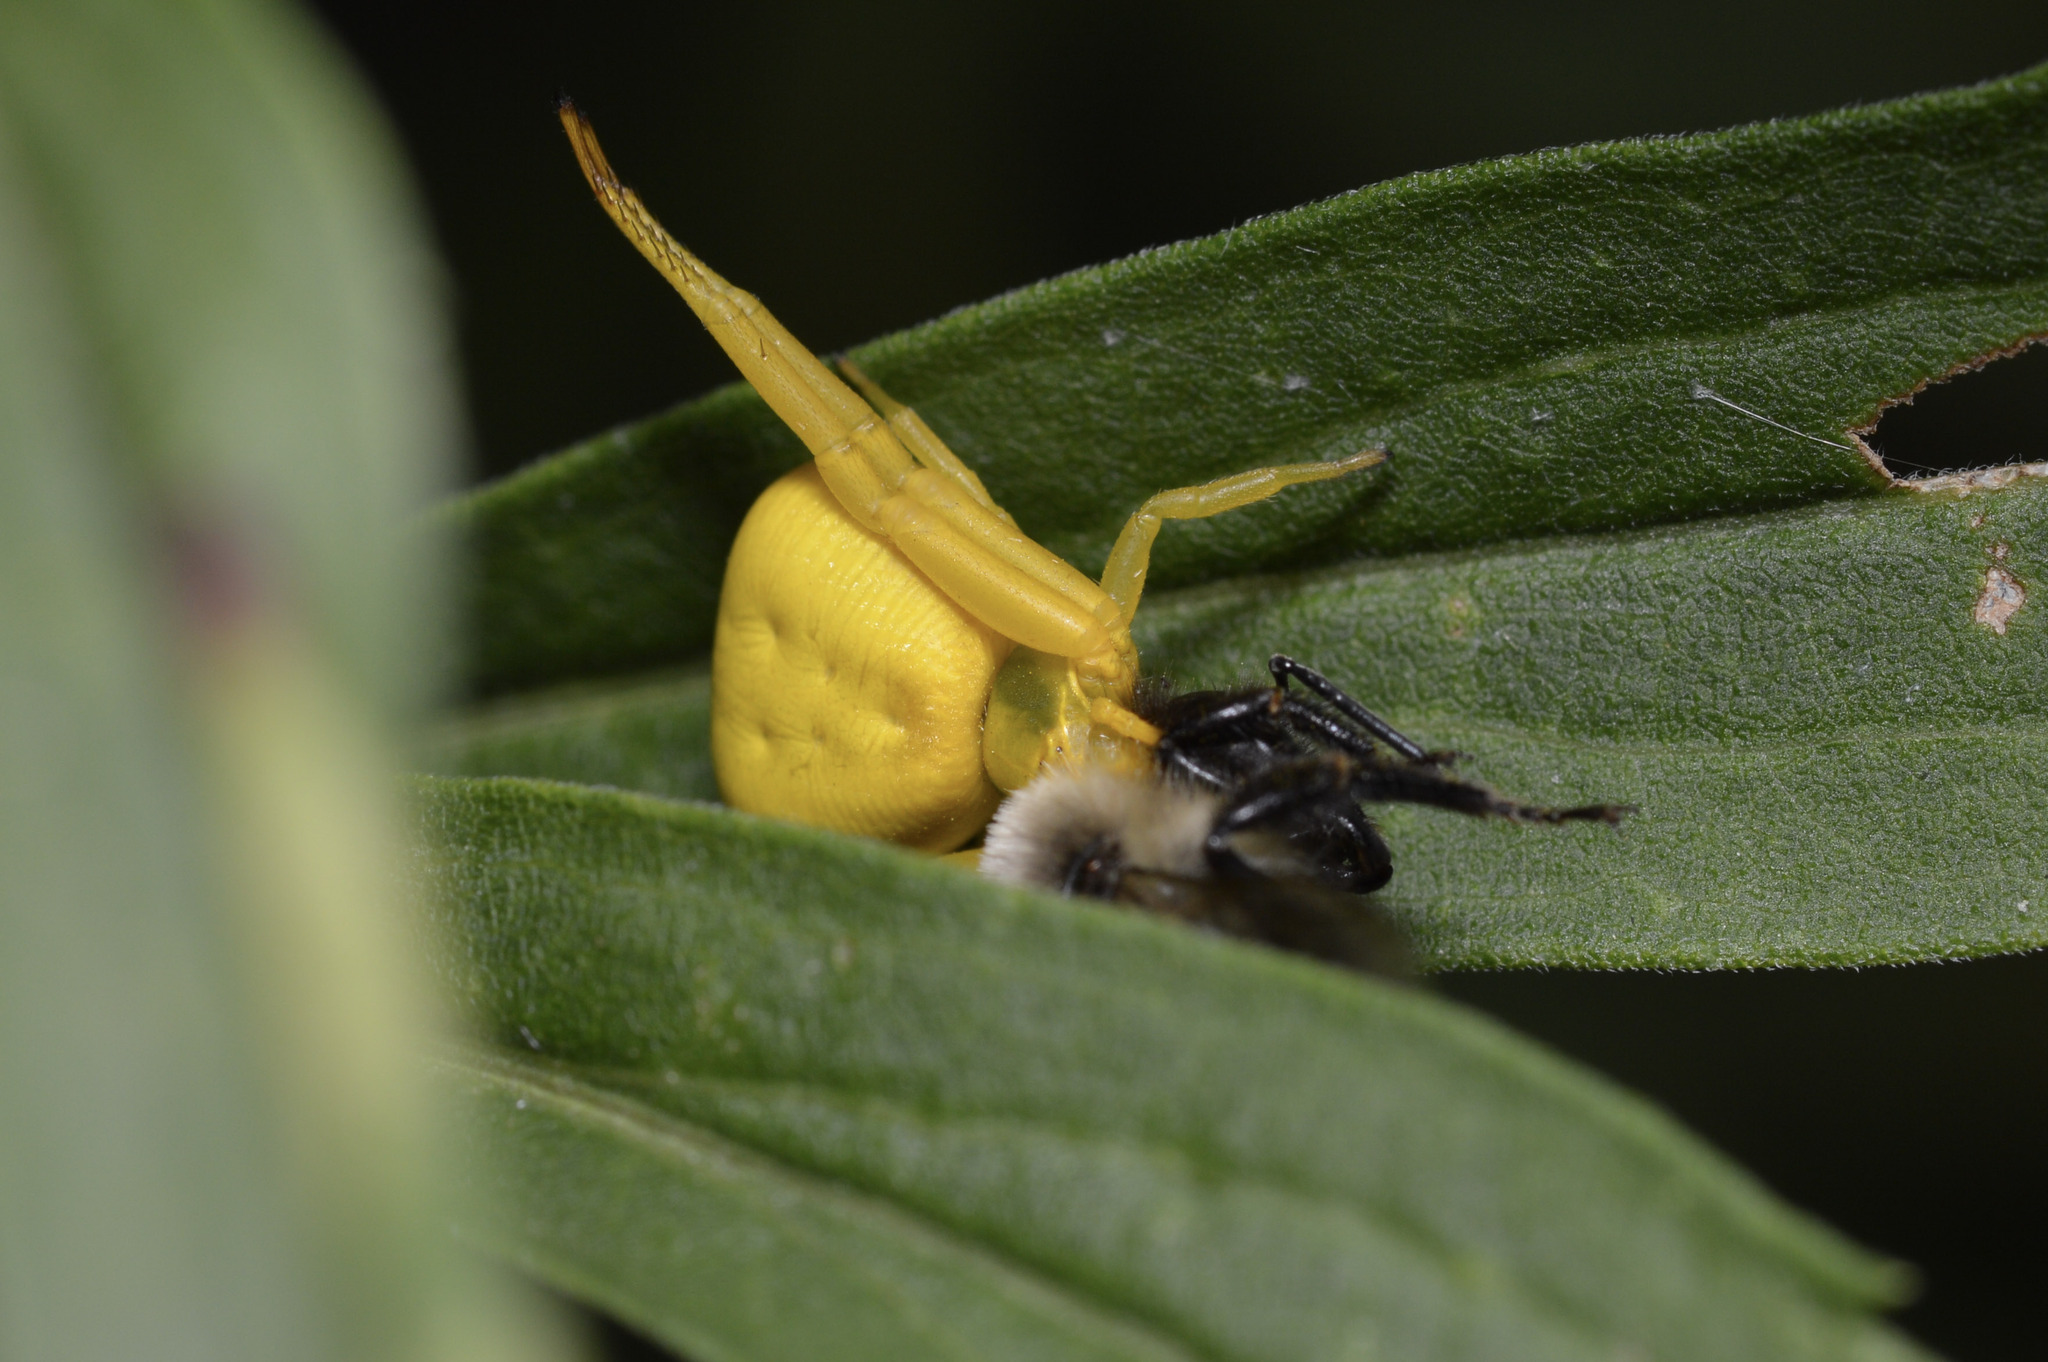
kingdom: Animalia
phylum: Arthropoda
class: Arachnida
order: Araneae
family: Thomisidae
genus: Misumenoides
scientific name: Misumenoides formosipes
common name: White-banded crab spider
